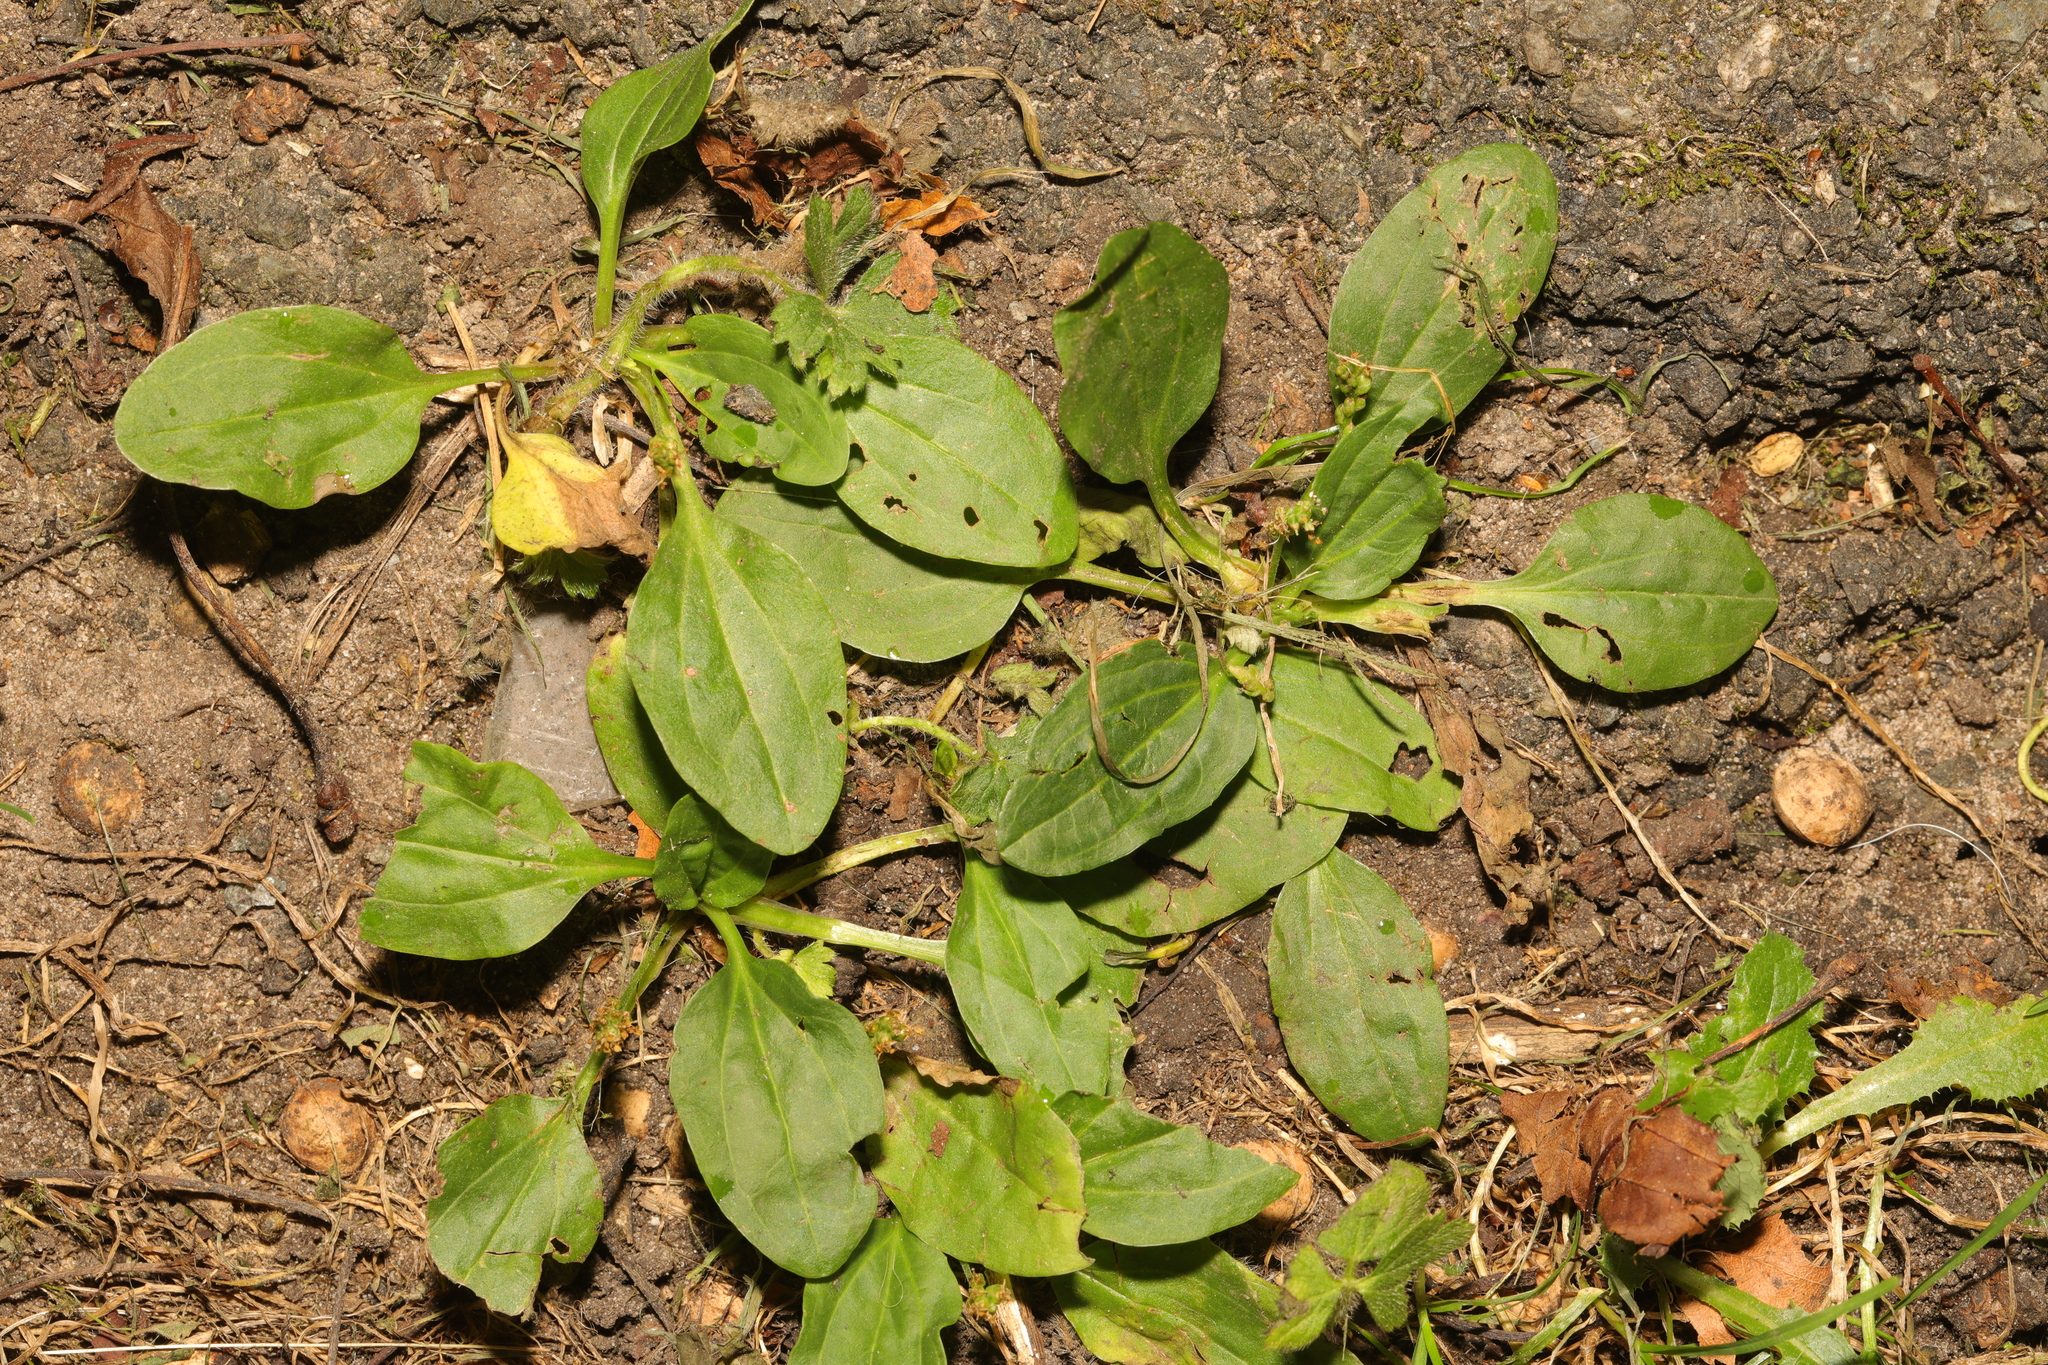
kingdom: Plantae
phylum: Tracheophyta
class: Magnoliopsida
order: Lamiales
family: Plantaginaceae
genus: Plantago
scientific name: Plantago major
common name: Common plantain
